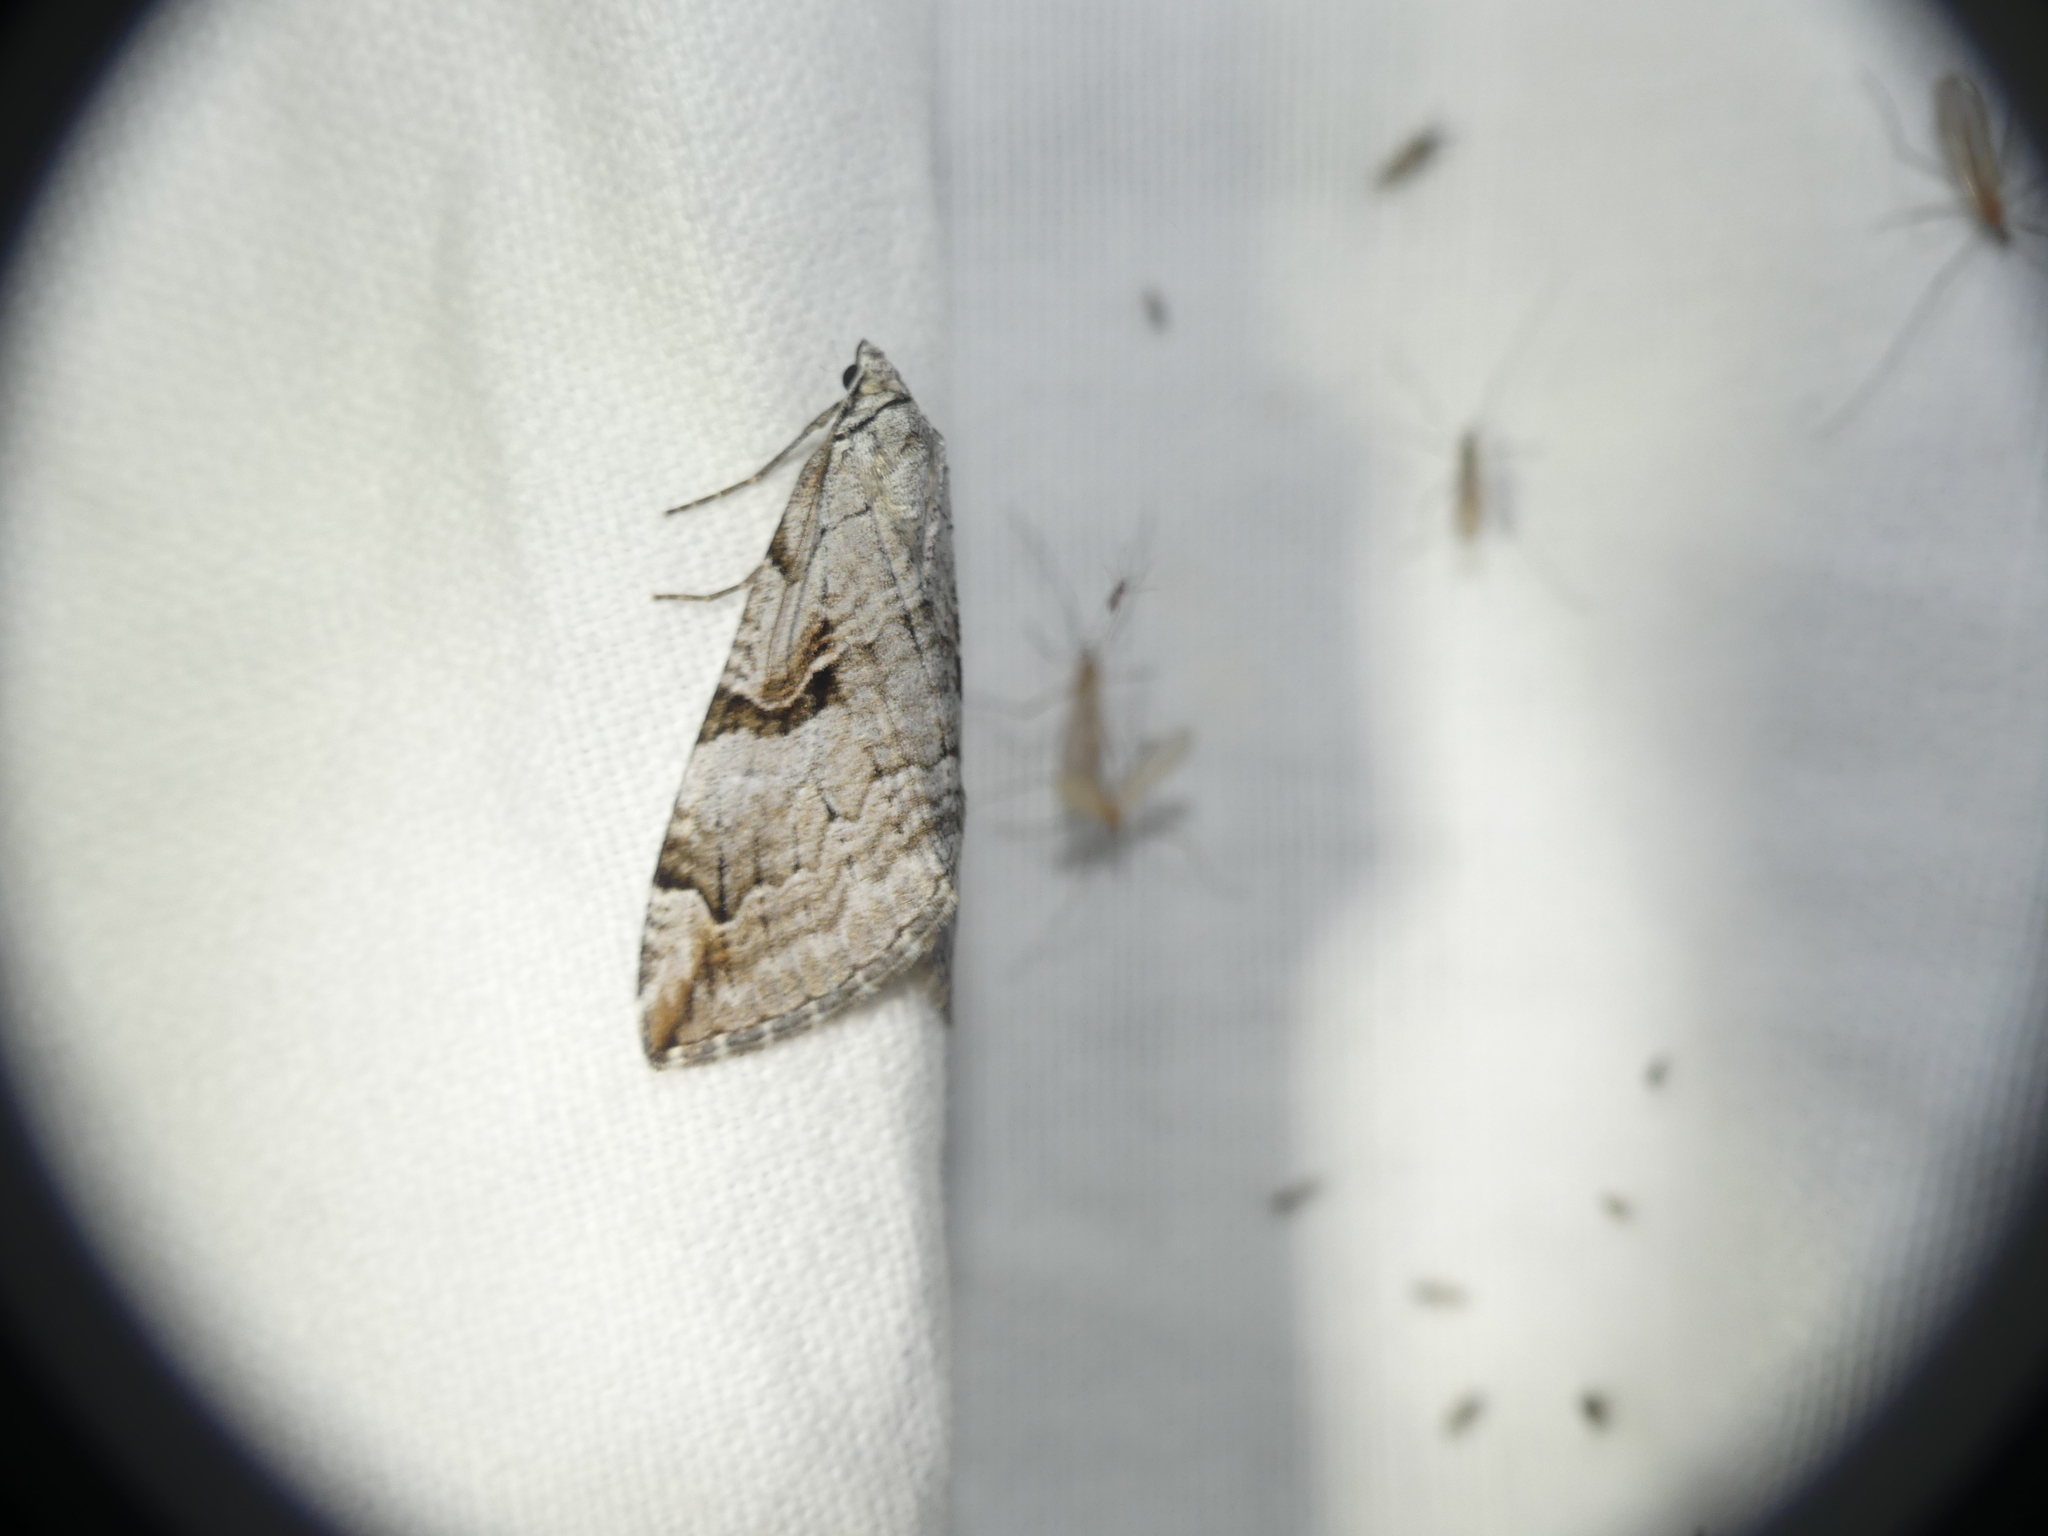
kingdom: Animalia
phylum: Arthropoda
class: Insecta
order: Lepidoptera
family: Geometridae
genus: Aplocera
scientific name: Aplocera praeformata
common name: Purple treble-bar
